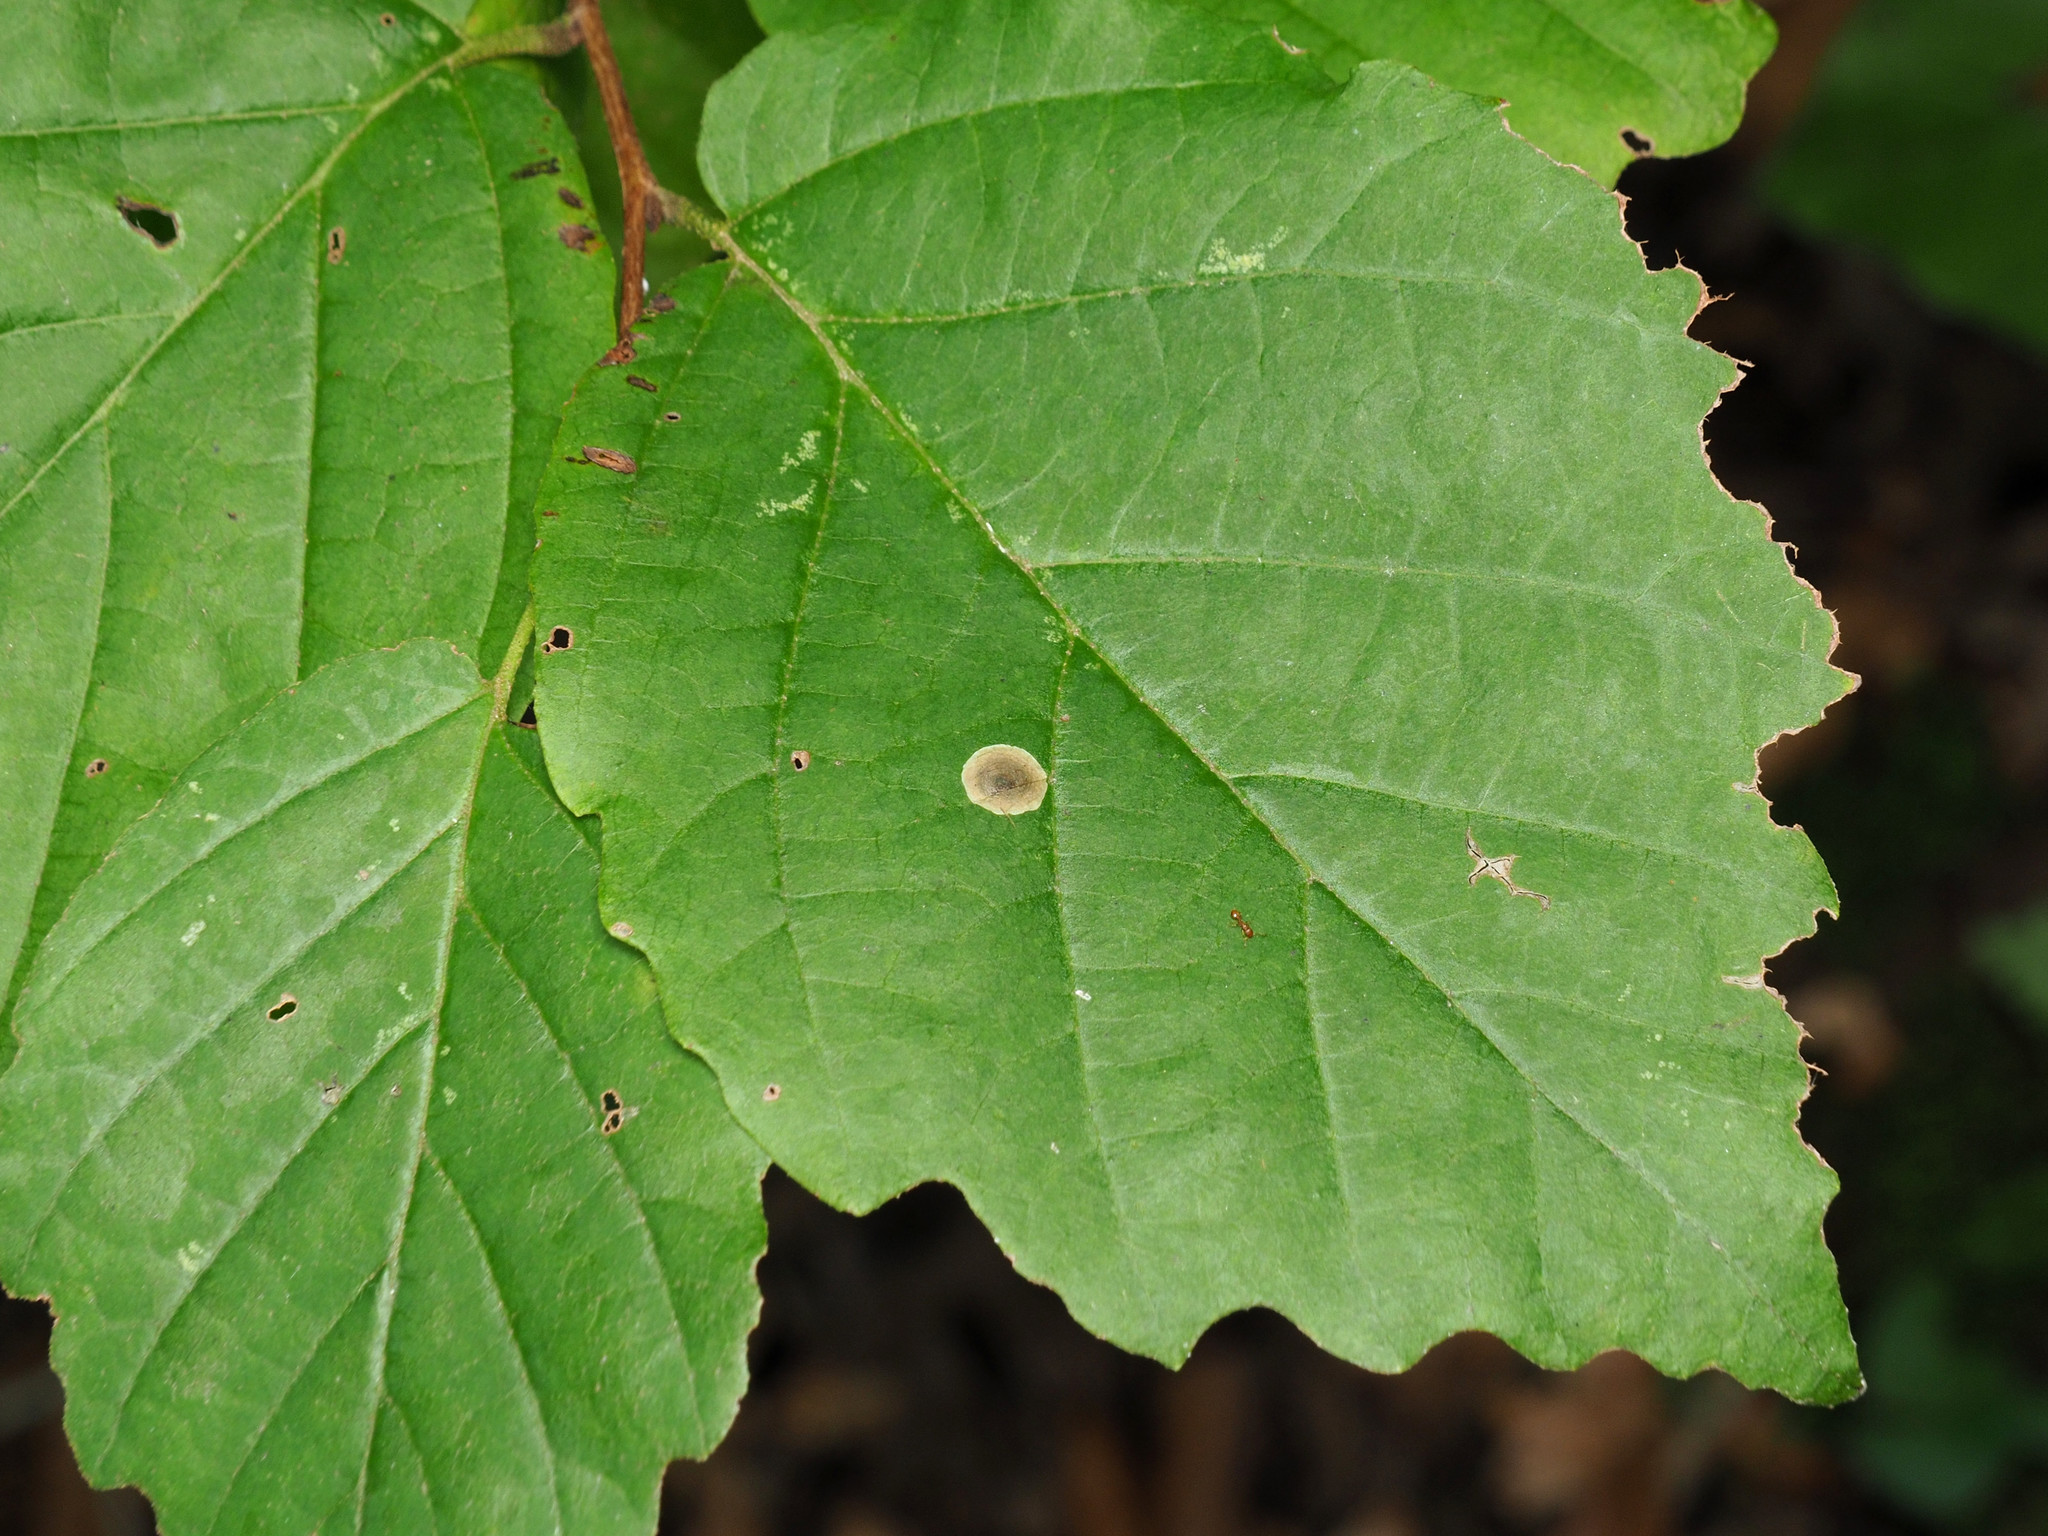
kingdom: Animalia
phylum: Arthropoda
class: Insecta
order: Lepidoptera
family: Gracillariidae
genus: Cameraria
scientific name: Cameraria hamameliella
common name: Witchhazel leafminer
